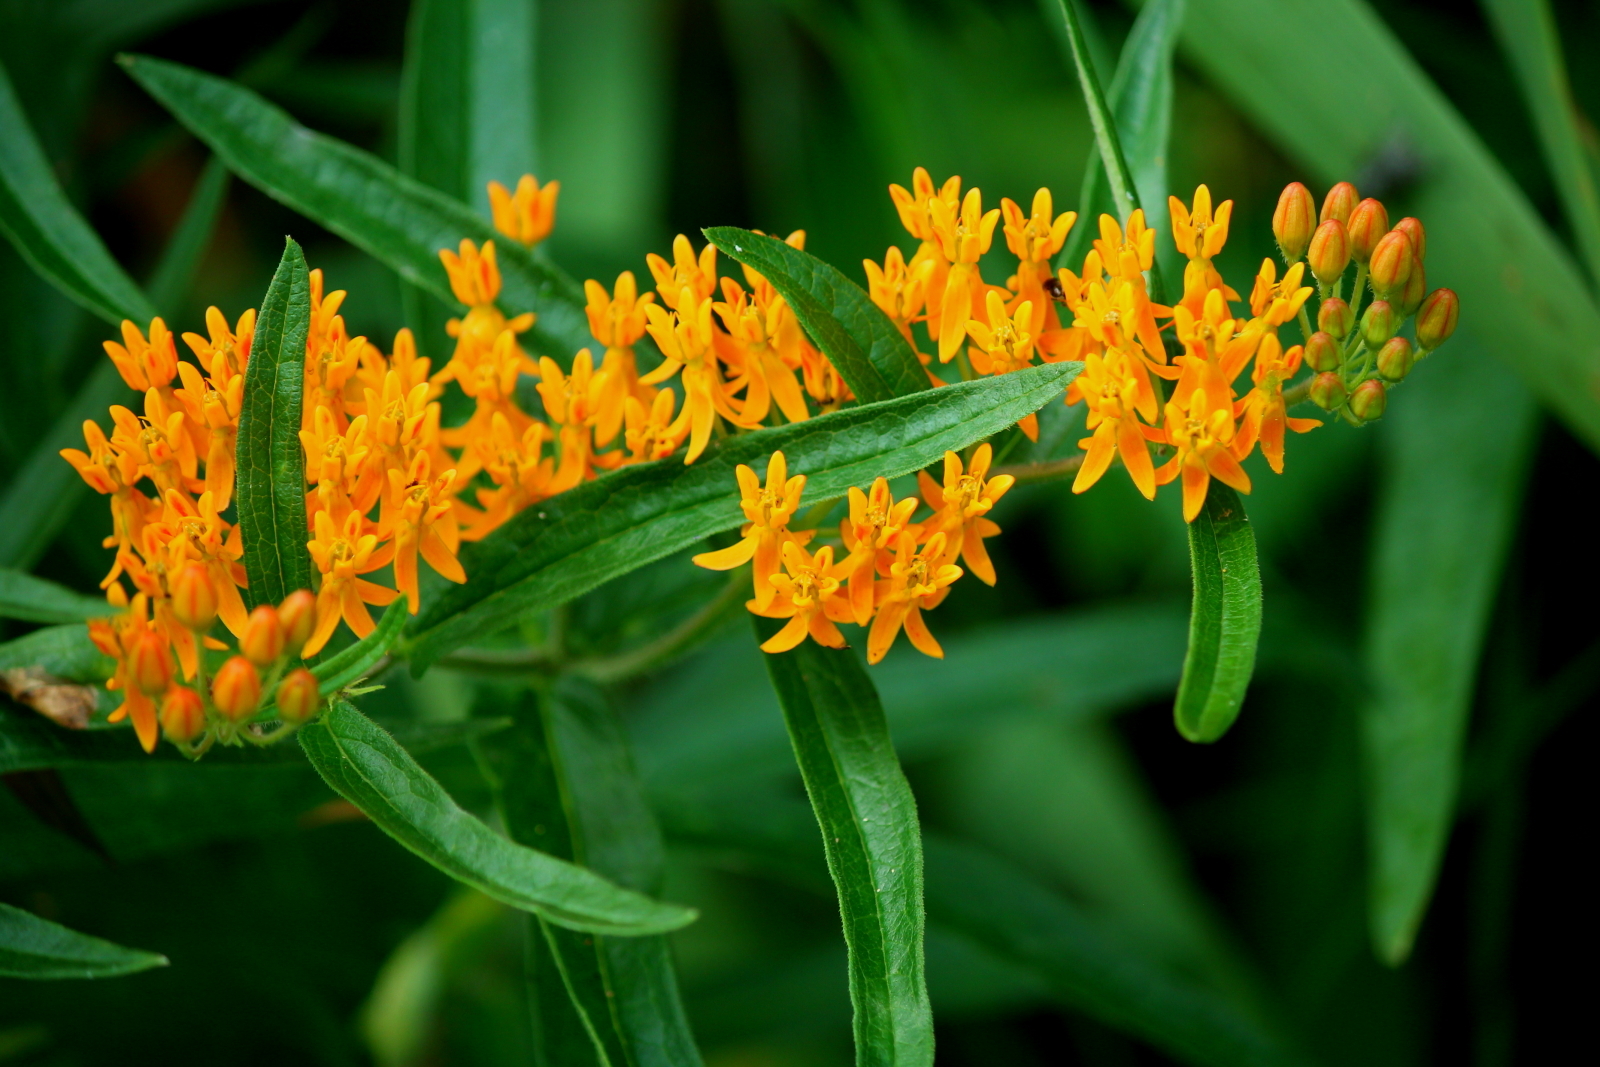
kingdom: Plantae
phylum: Tracheophyta
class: Magnoliopsida
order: Gentianales
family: Apocynaceae
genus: Asclepias
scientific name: Asclepias tuberosa
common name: Butterfly milkweed
